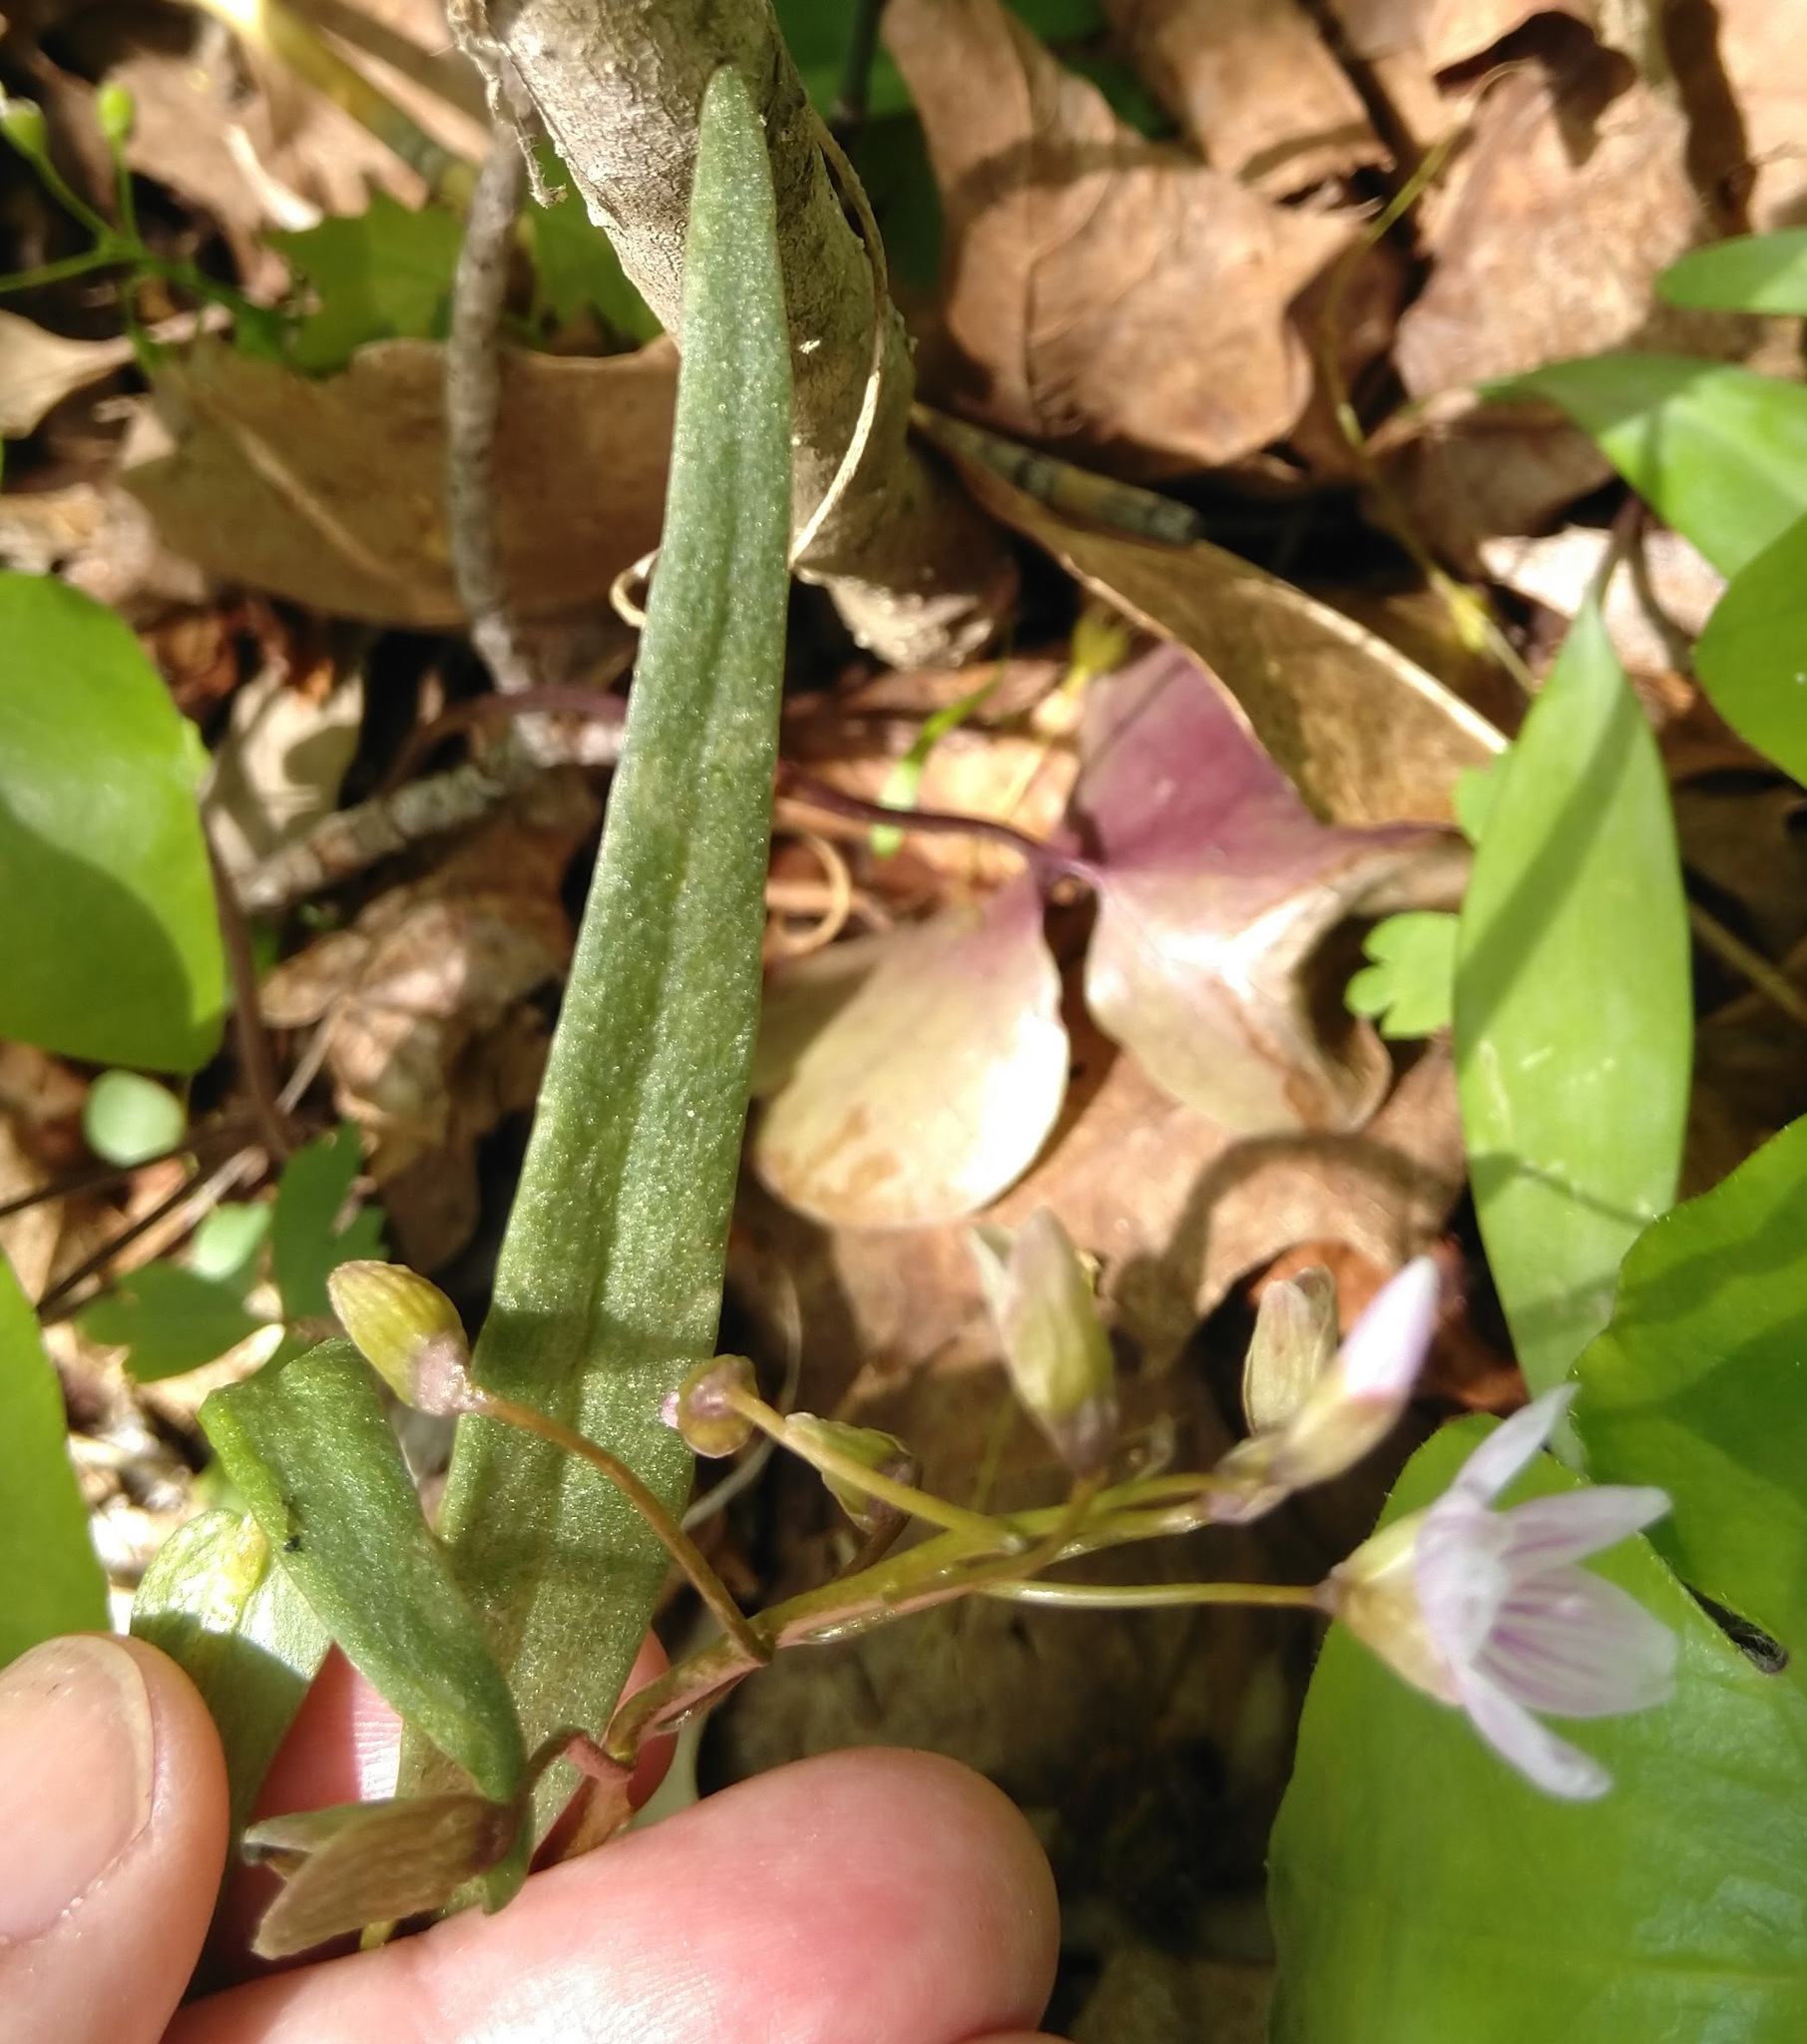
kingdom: Plantae
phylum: Tracheophyta
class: Magnoliopsida
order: Caryophyllales
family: Montiaceae
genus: Claytonia
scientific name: Claytonia virginica
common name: Virginia springbeauty
